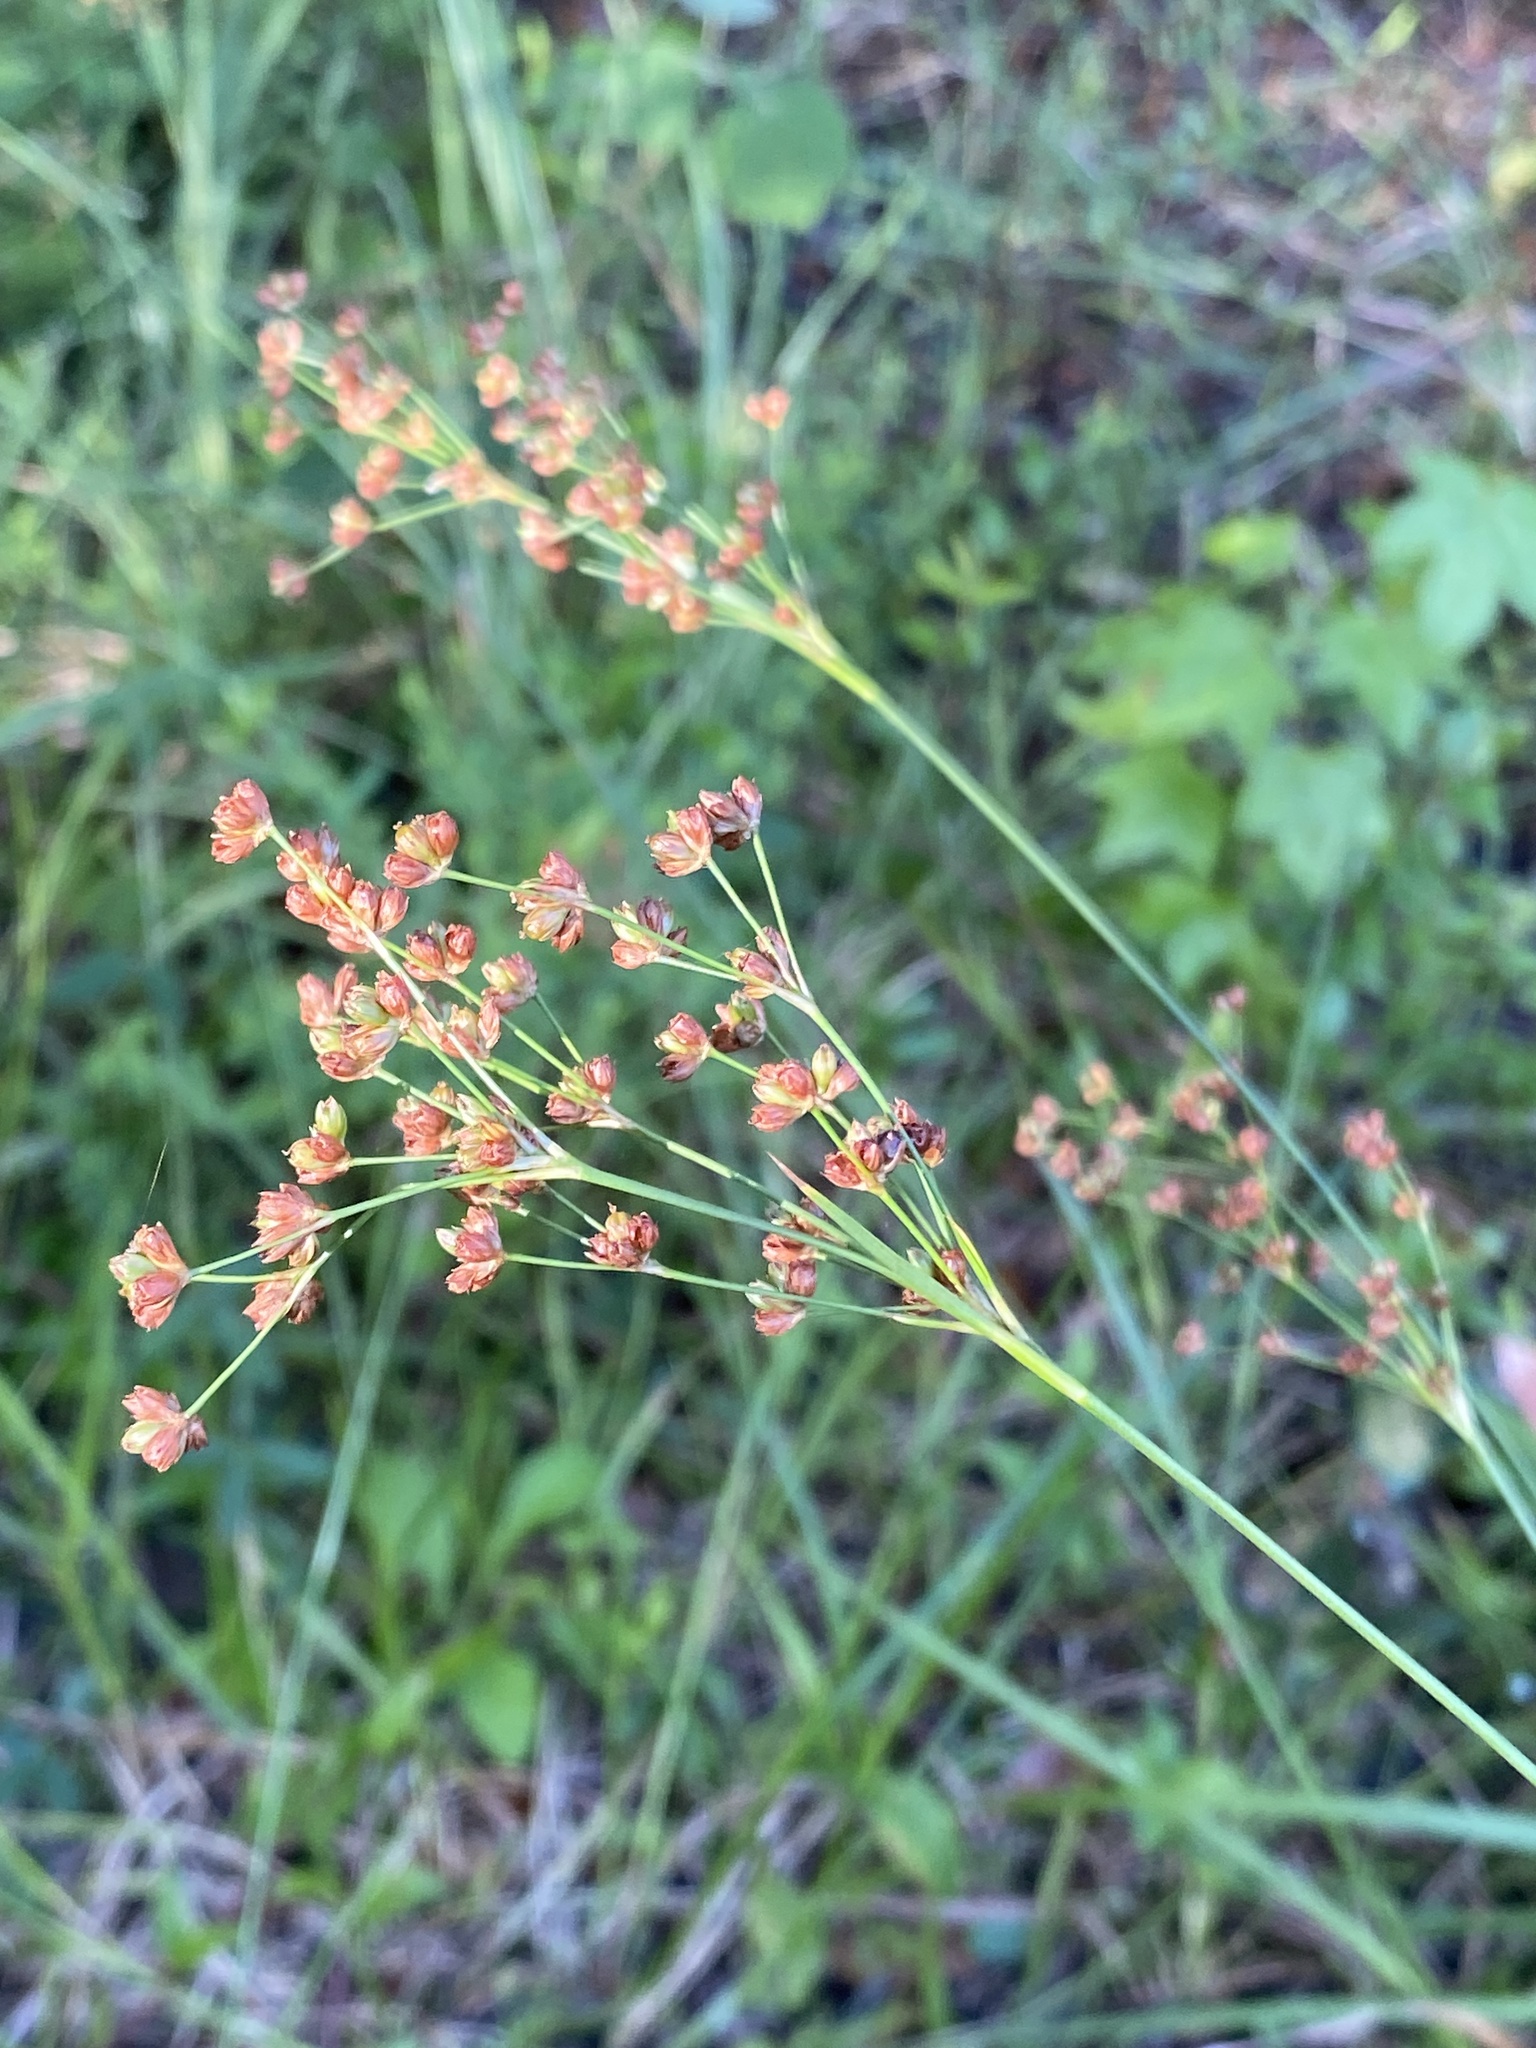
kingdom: Plantae
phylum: Tracheophyta
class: Liliopsida
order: Poales
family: Juncaceae
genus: Juncus
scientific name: Juncus biflorus
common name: Two-flowered rush
